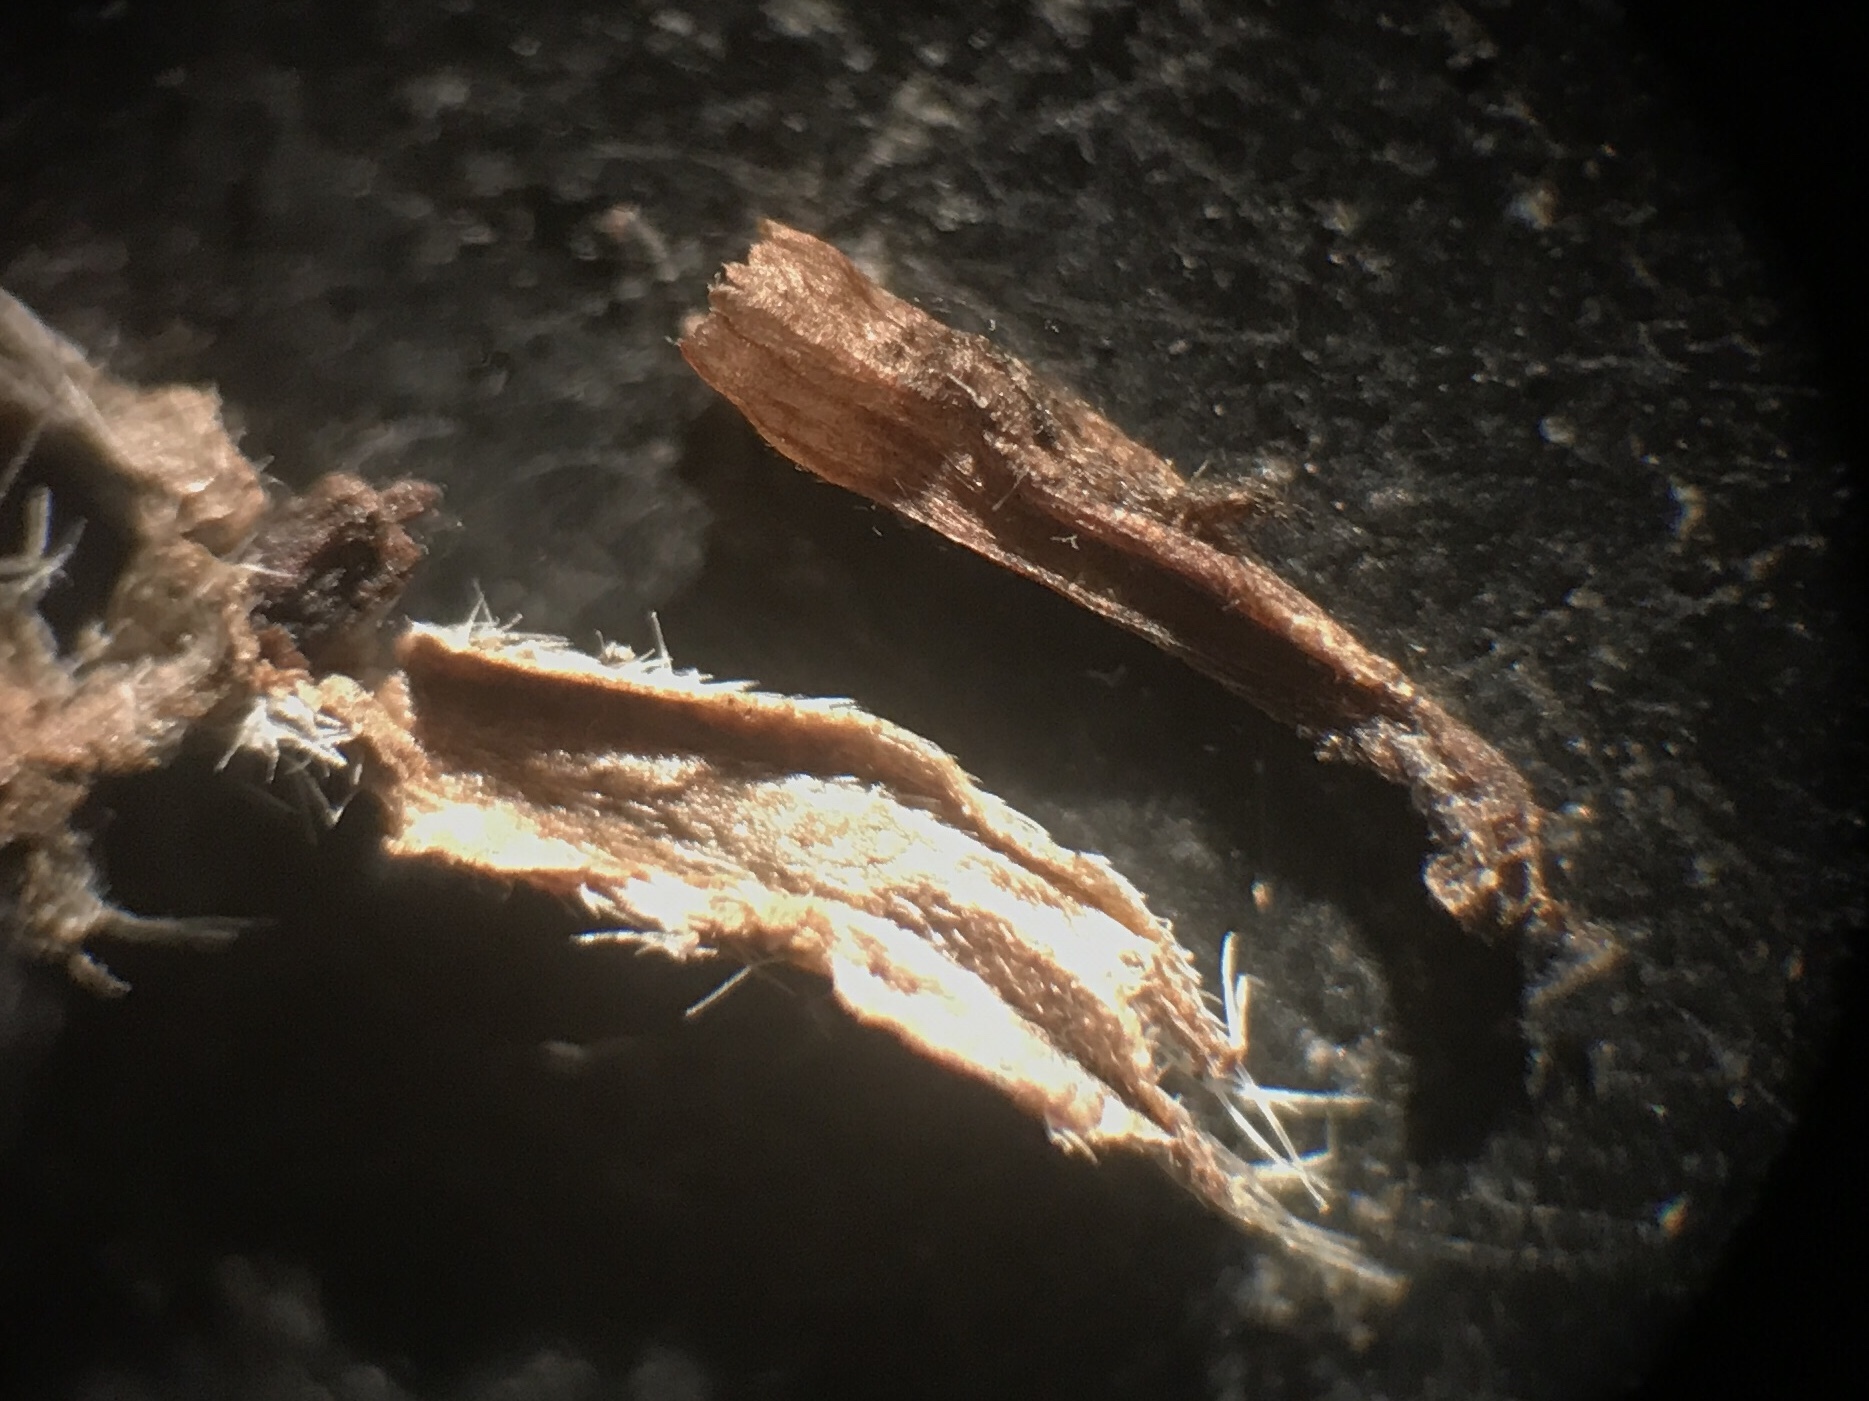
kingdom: Plantae
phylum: Tracheophyta
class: Magnoliopsida
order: Lamiales
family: Verbenaceae
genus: Verbena
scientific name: Verbena stricta
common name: Hoary vervain
